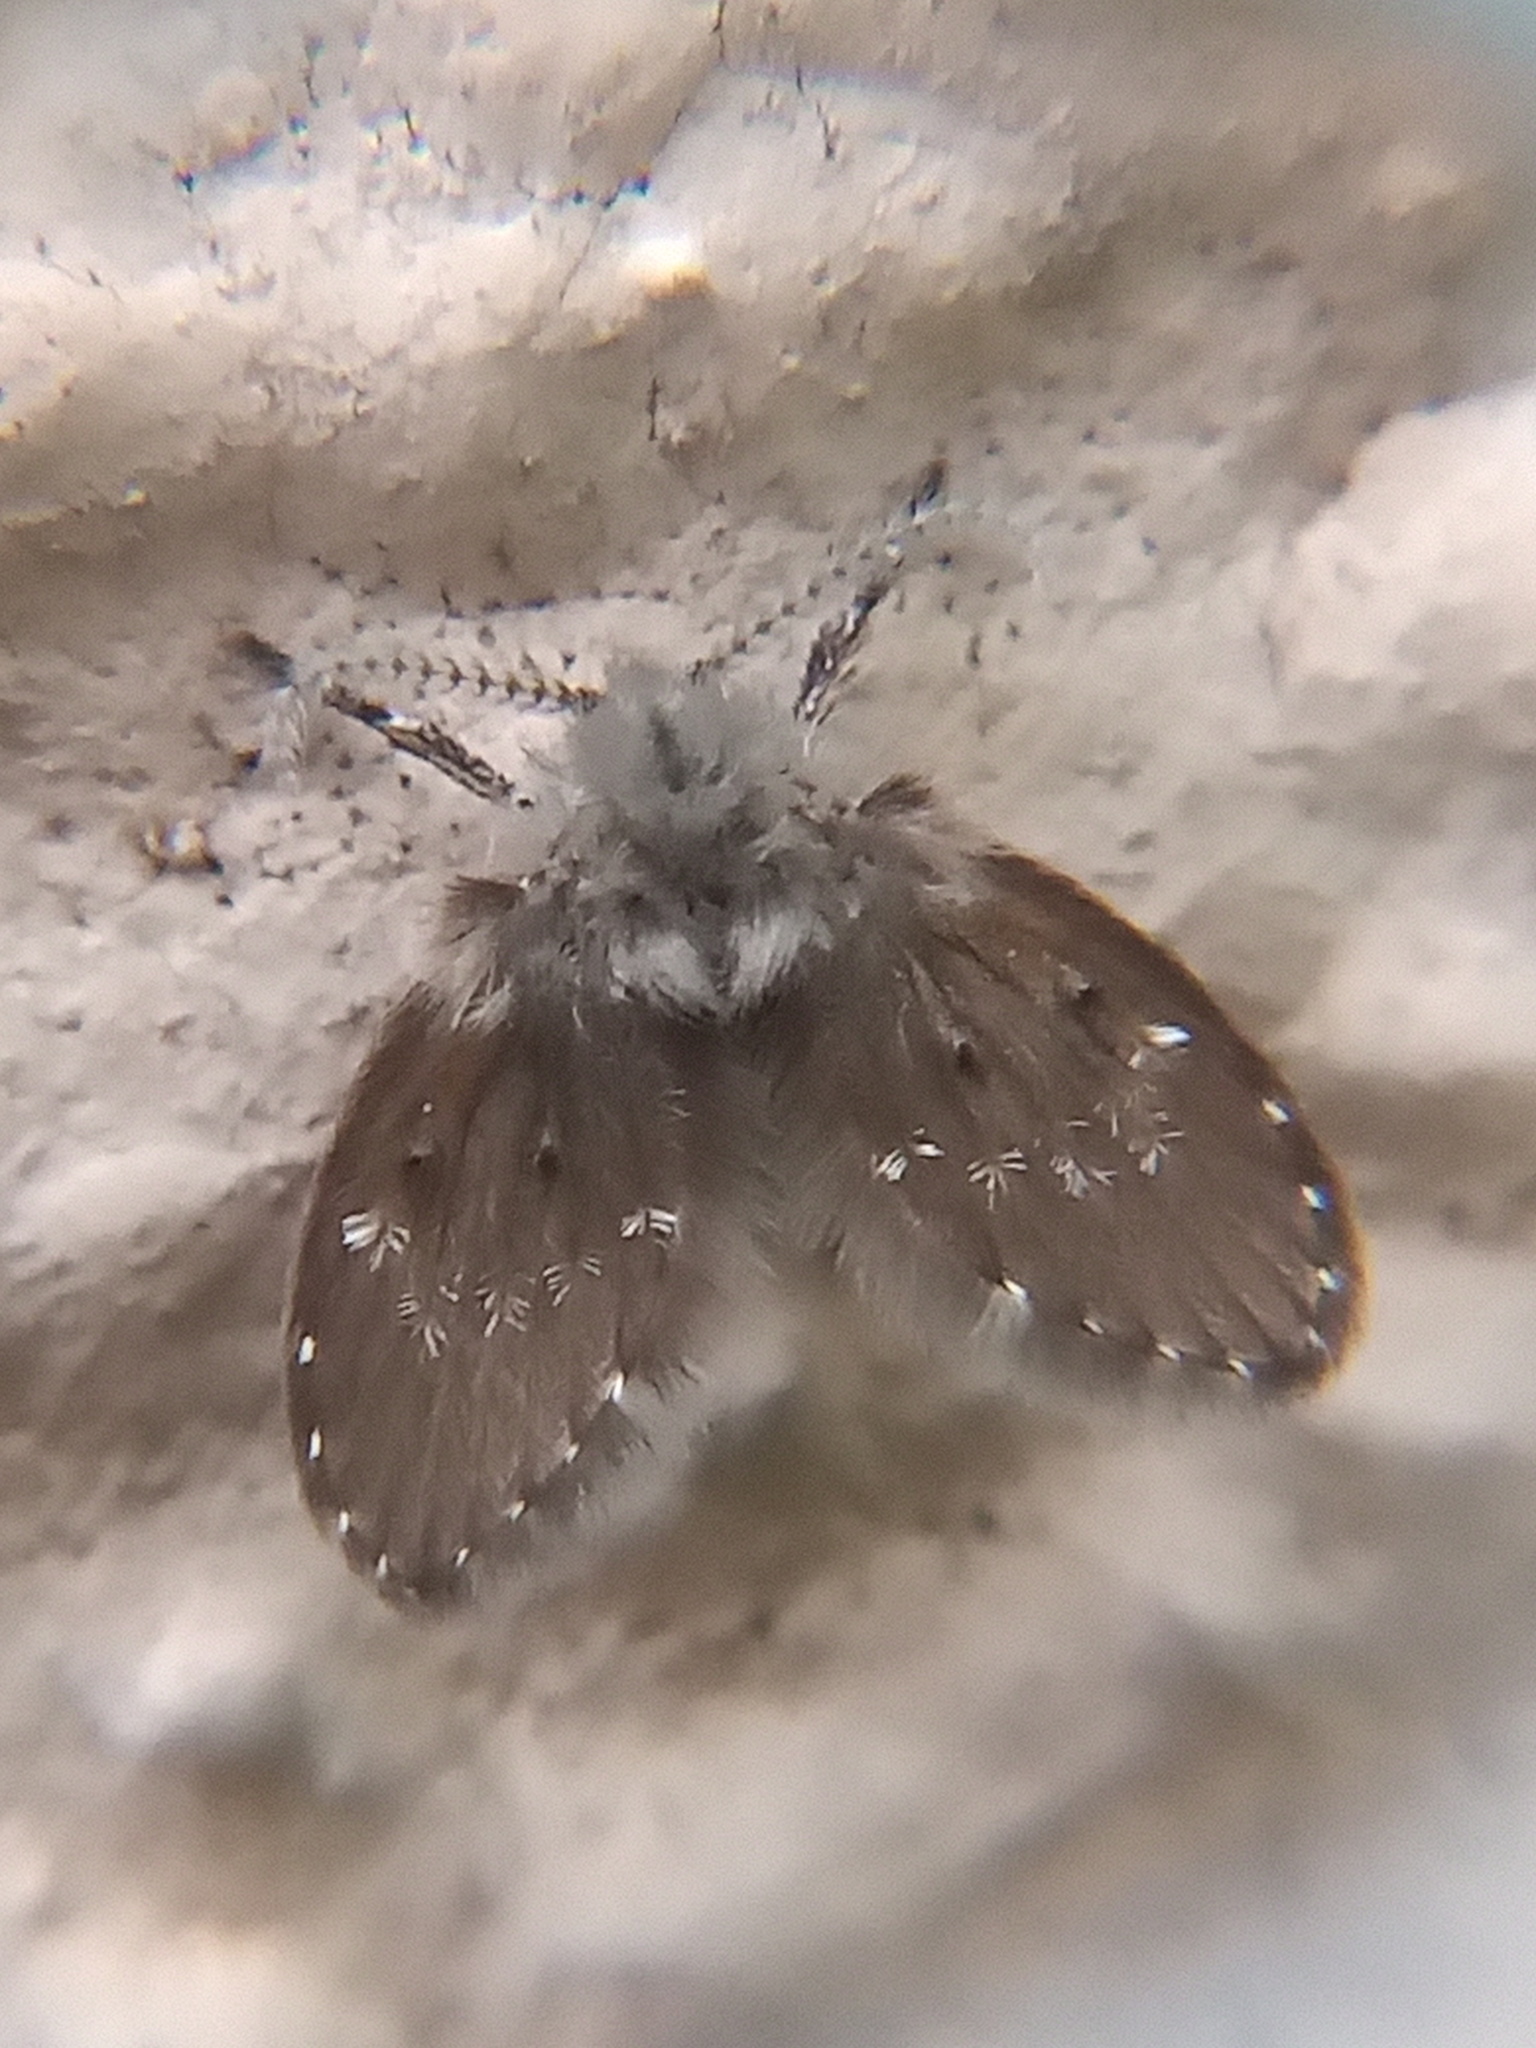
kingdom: Animalia
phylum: Arthropoda
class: Insecta
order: Diptera
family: Psychodidae
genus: Clogmia
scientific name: Clogmia albipunctatus
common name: White-spotted moth fly
